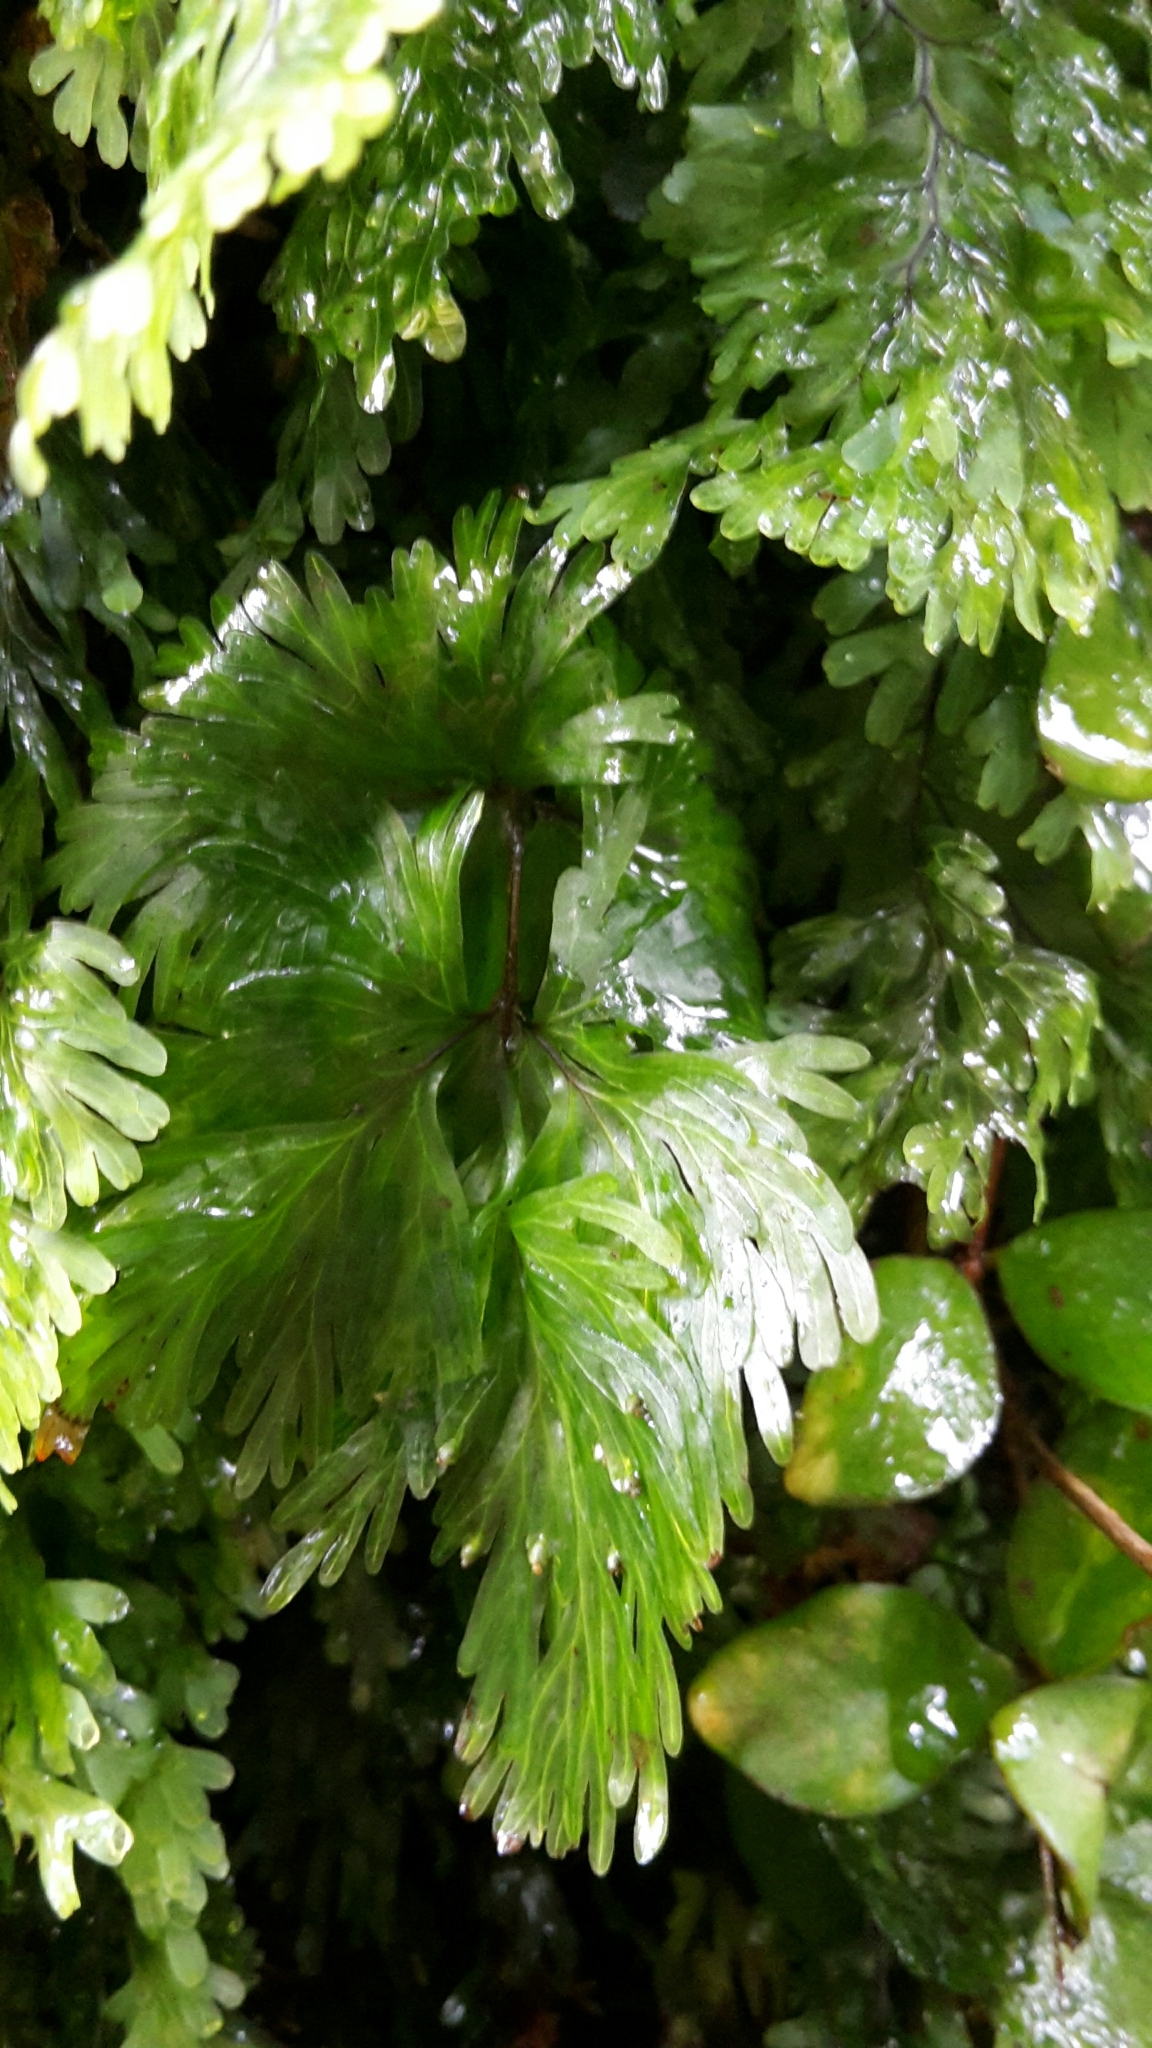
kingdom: Plantae
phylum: Tracheophyta
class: Polypodiopsida
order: Hymenophyllales
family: Hymenophyllaceae
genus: Hymenophyllum
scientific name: Hymenophyllum flabellatum
